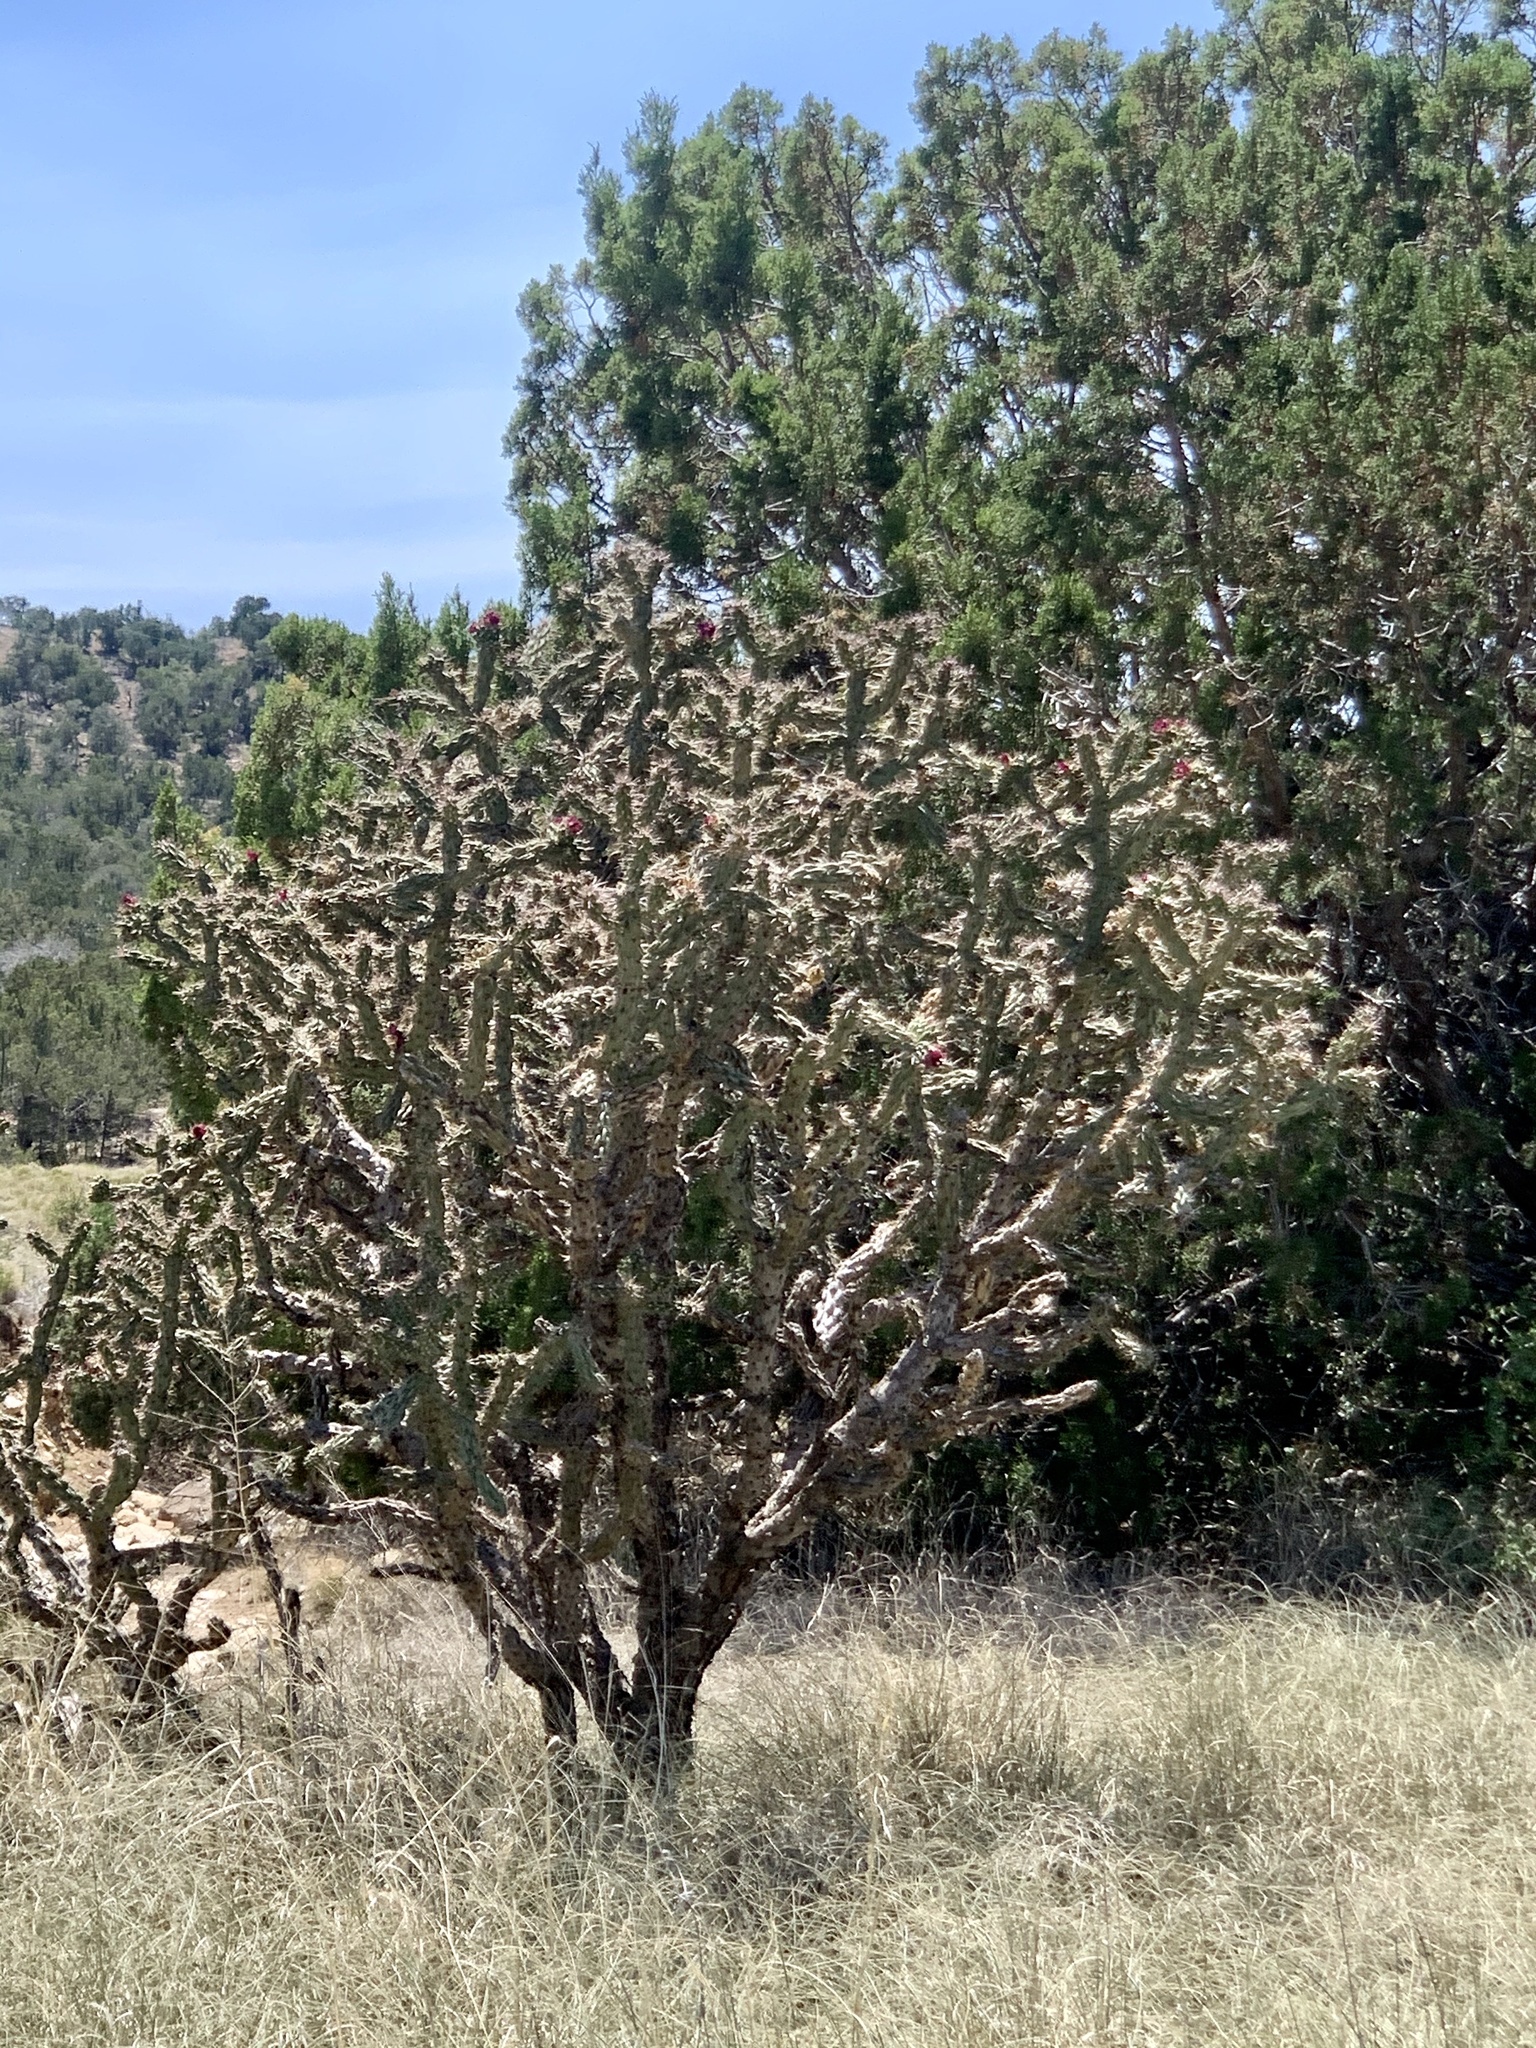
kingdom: Plantae
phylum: Tracheophyta
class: Magnoliopsida
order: Caryophyllales
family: Cactaceae
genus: Cylindropuntia
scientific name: Cylindropuntia imbricata
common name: Candelabrum cactus
